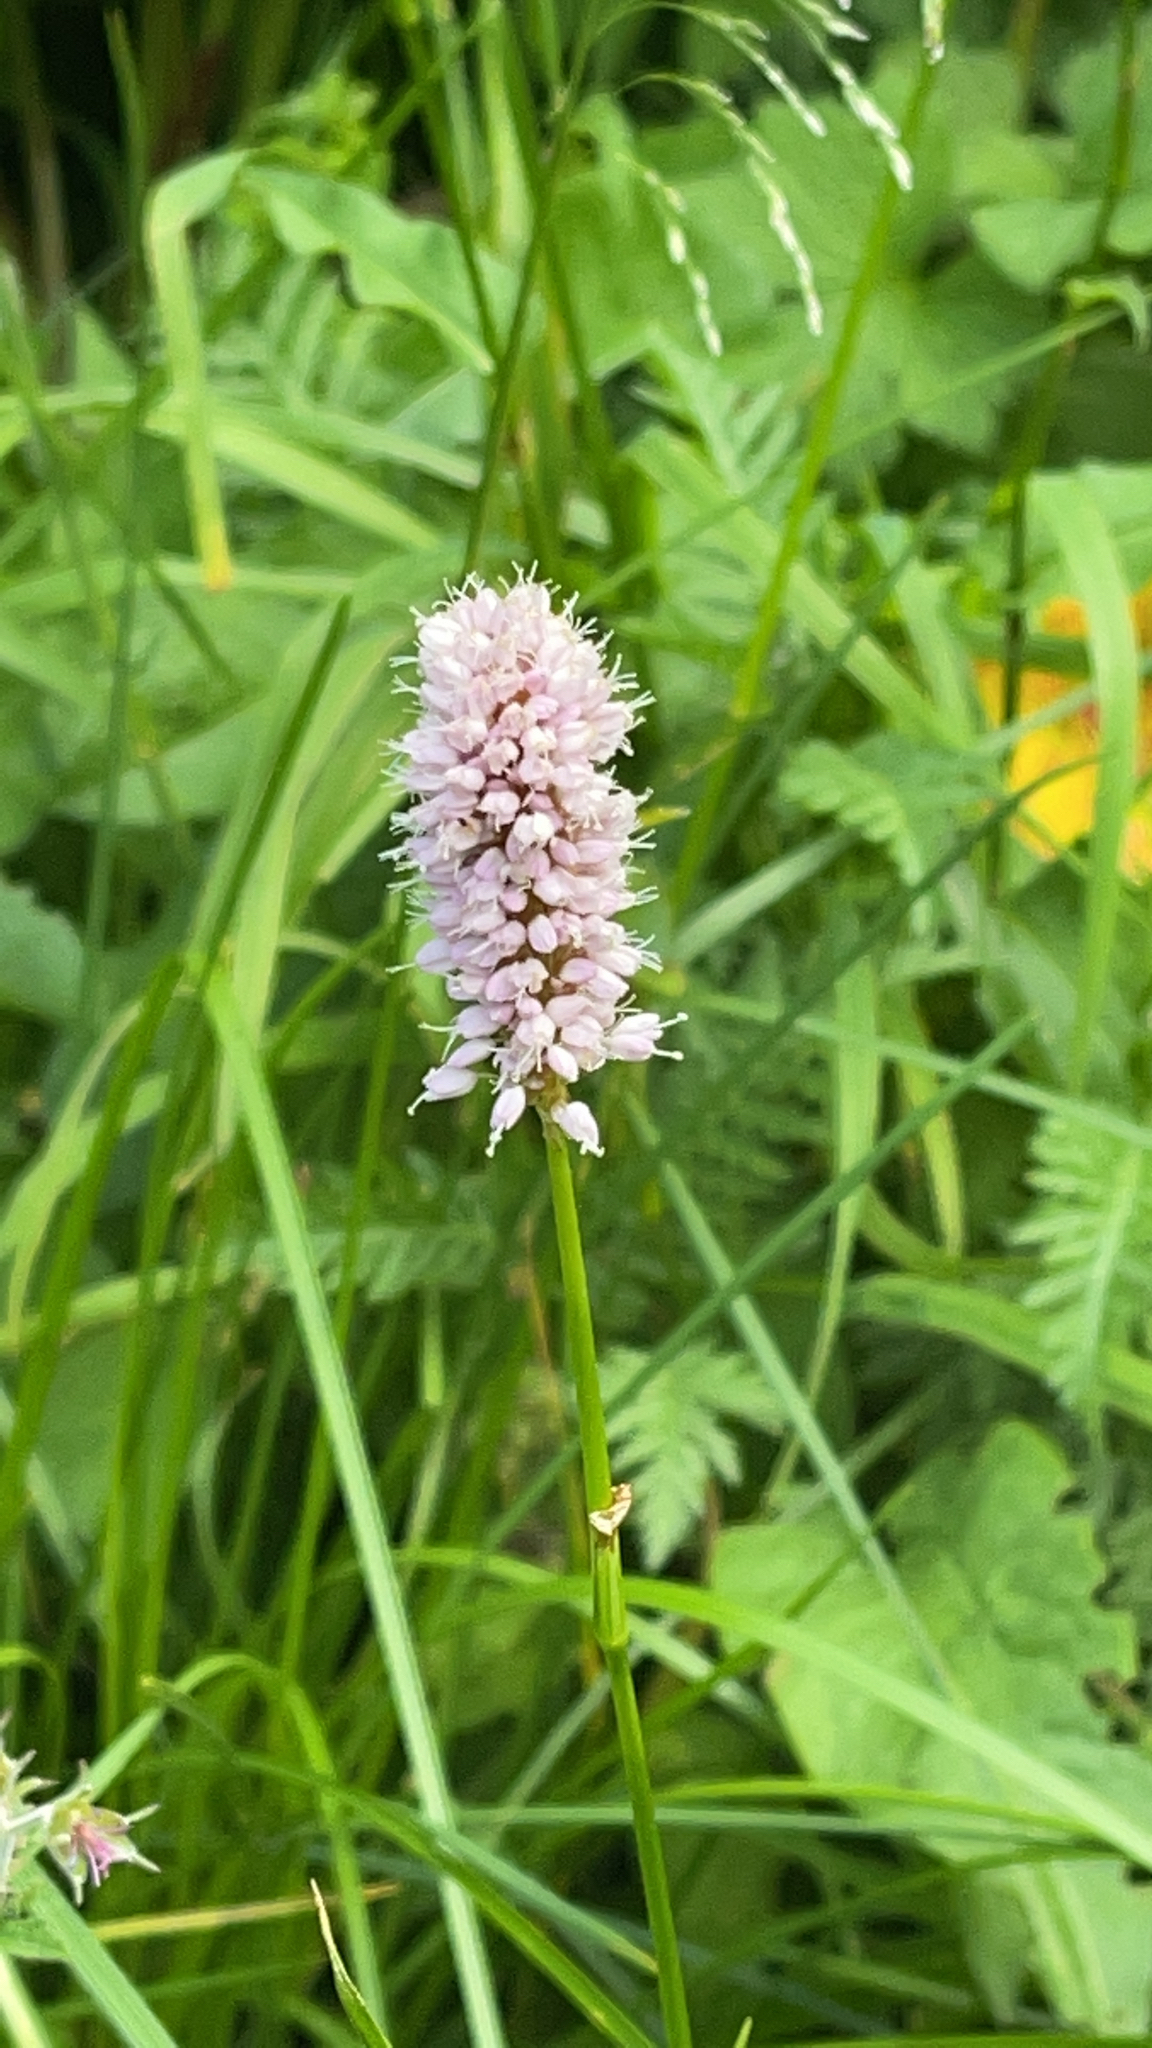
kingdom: Plantae
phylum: Tracheophyta
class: Magnoliopsida
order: Caryophyllales
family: Polygonaceae
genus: Bistorta
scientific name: Bistorta officinalis
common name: Common bistort
